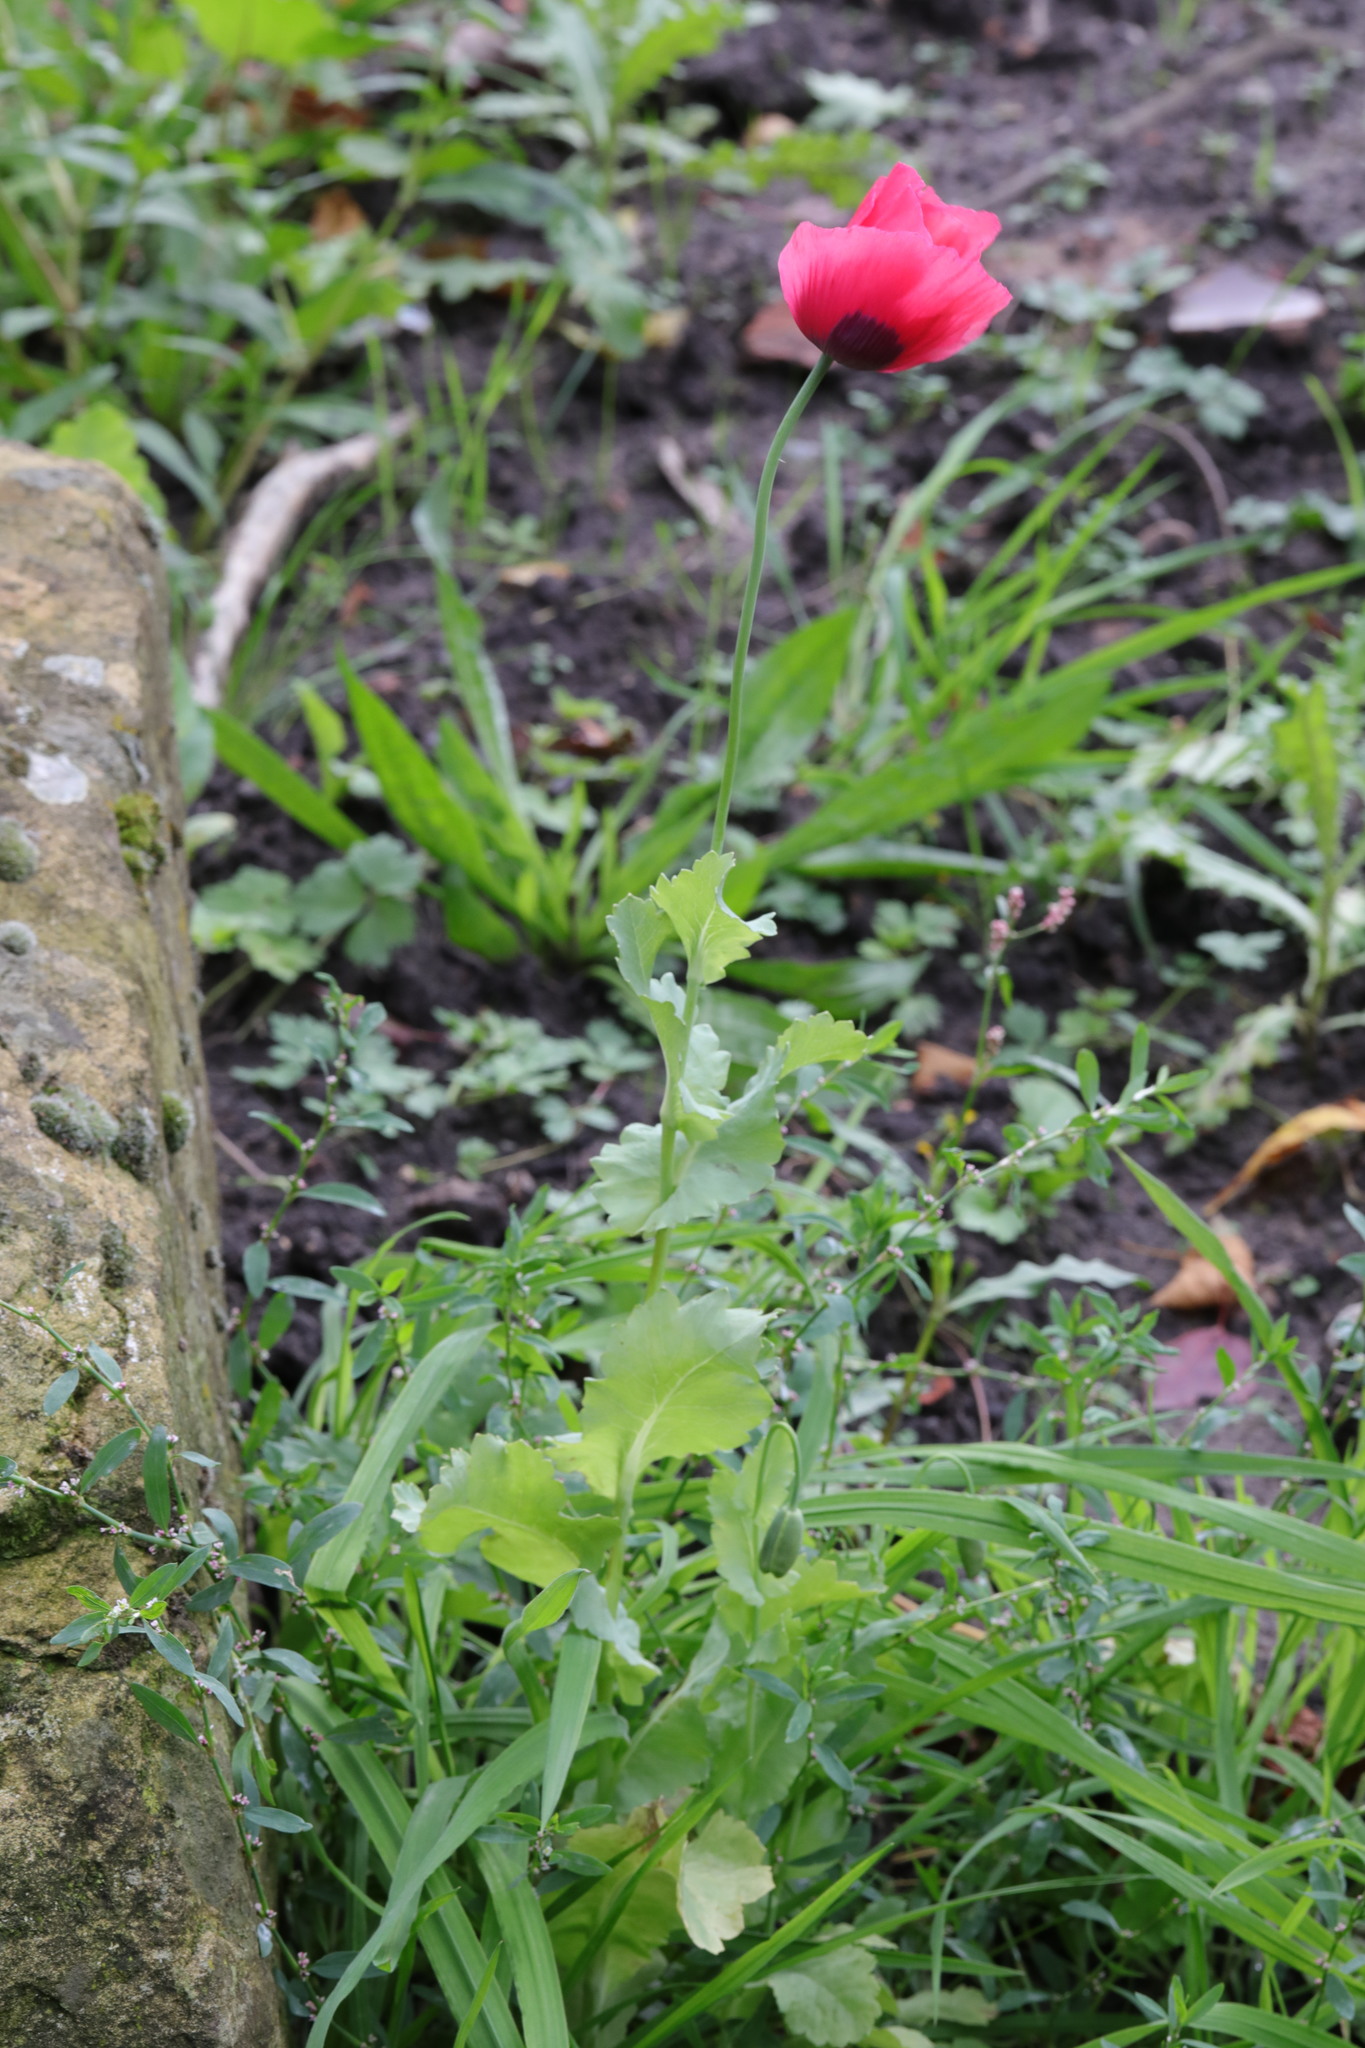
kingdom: Plantae
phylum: Tracheophyta
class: Magnoliopsida
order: Ranunculales
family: Papaveraceae
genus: Papaver
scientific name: Papaver somniferum
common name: Opium poppy
